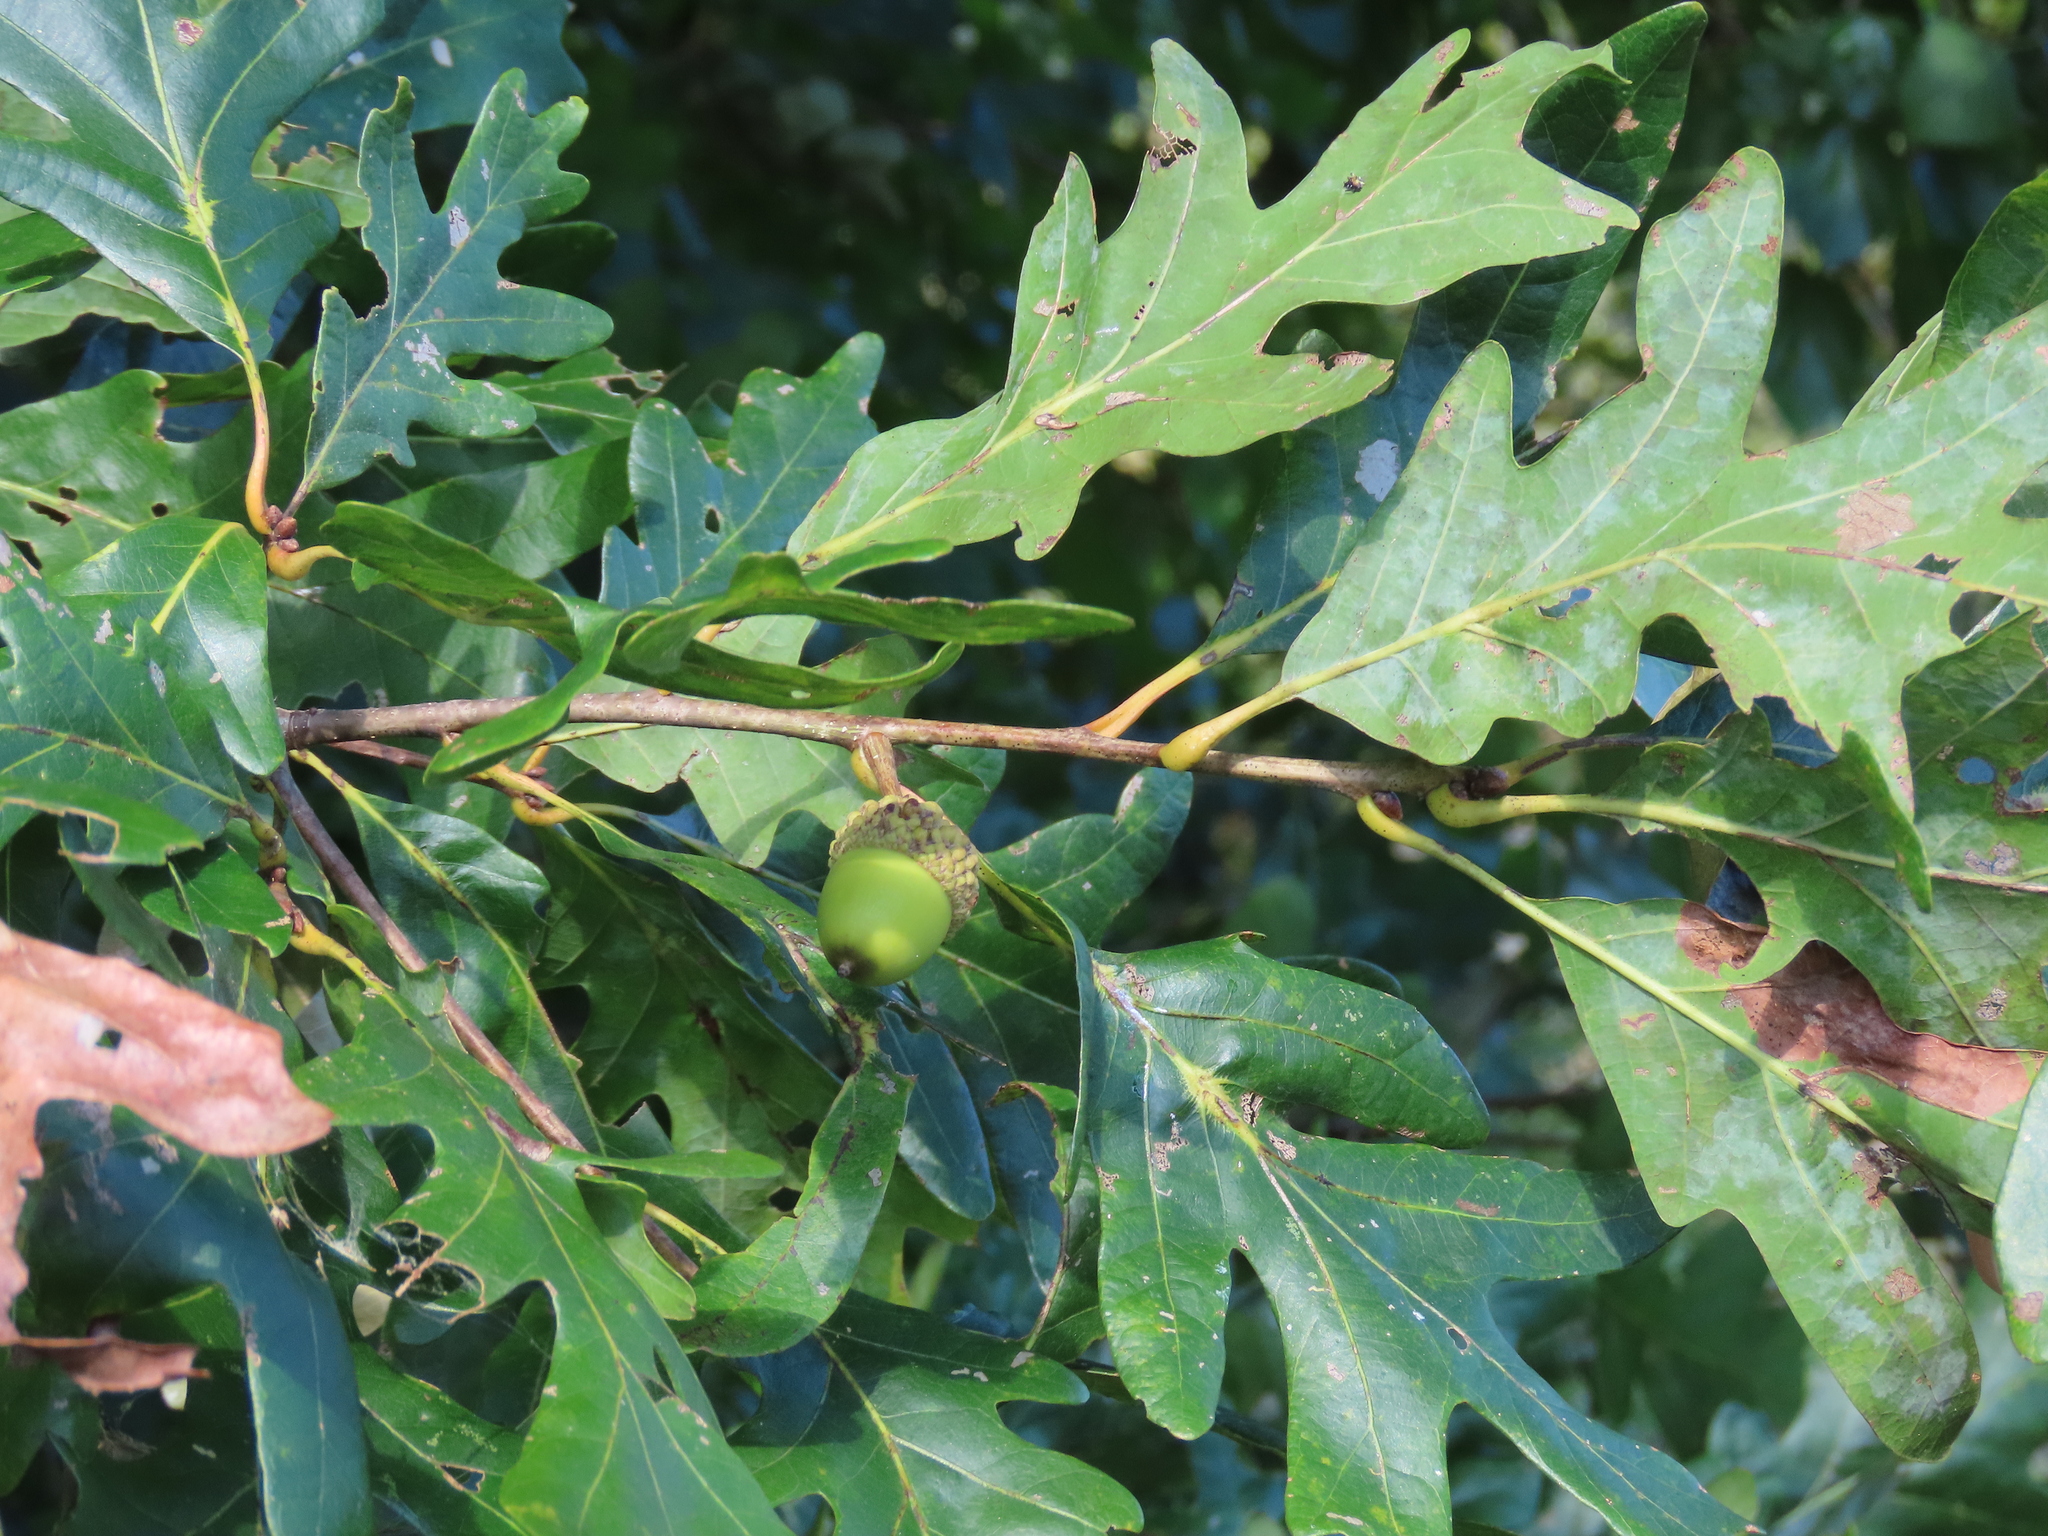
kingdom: Plantae
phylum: Tracheophyta
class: Magnoliopsida
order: Fagales
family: Fagaceae
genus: Quercus
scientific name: Quercus alba
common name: White oak
